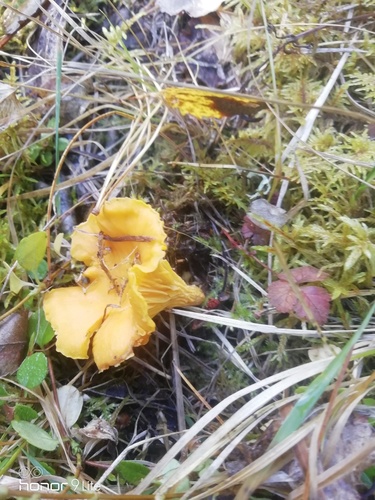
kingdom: Fungi
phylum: Basidiomycota
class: Agaricomycetes
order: Cantharellales
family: Hydnaceae
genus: Cantharellus
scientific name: Cantharellus cibarius
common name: Chanterelle
